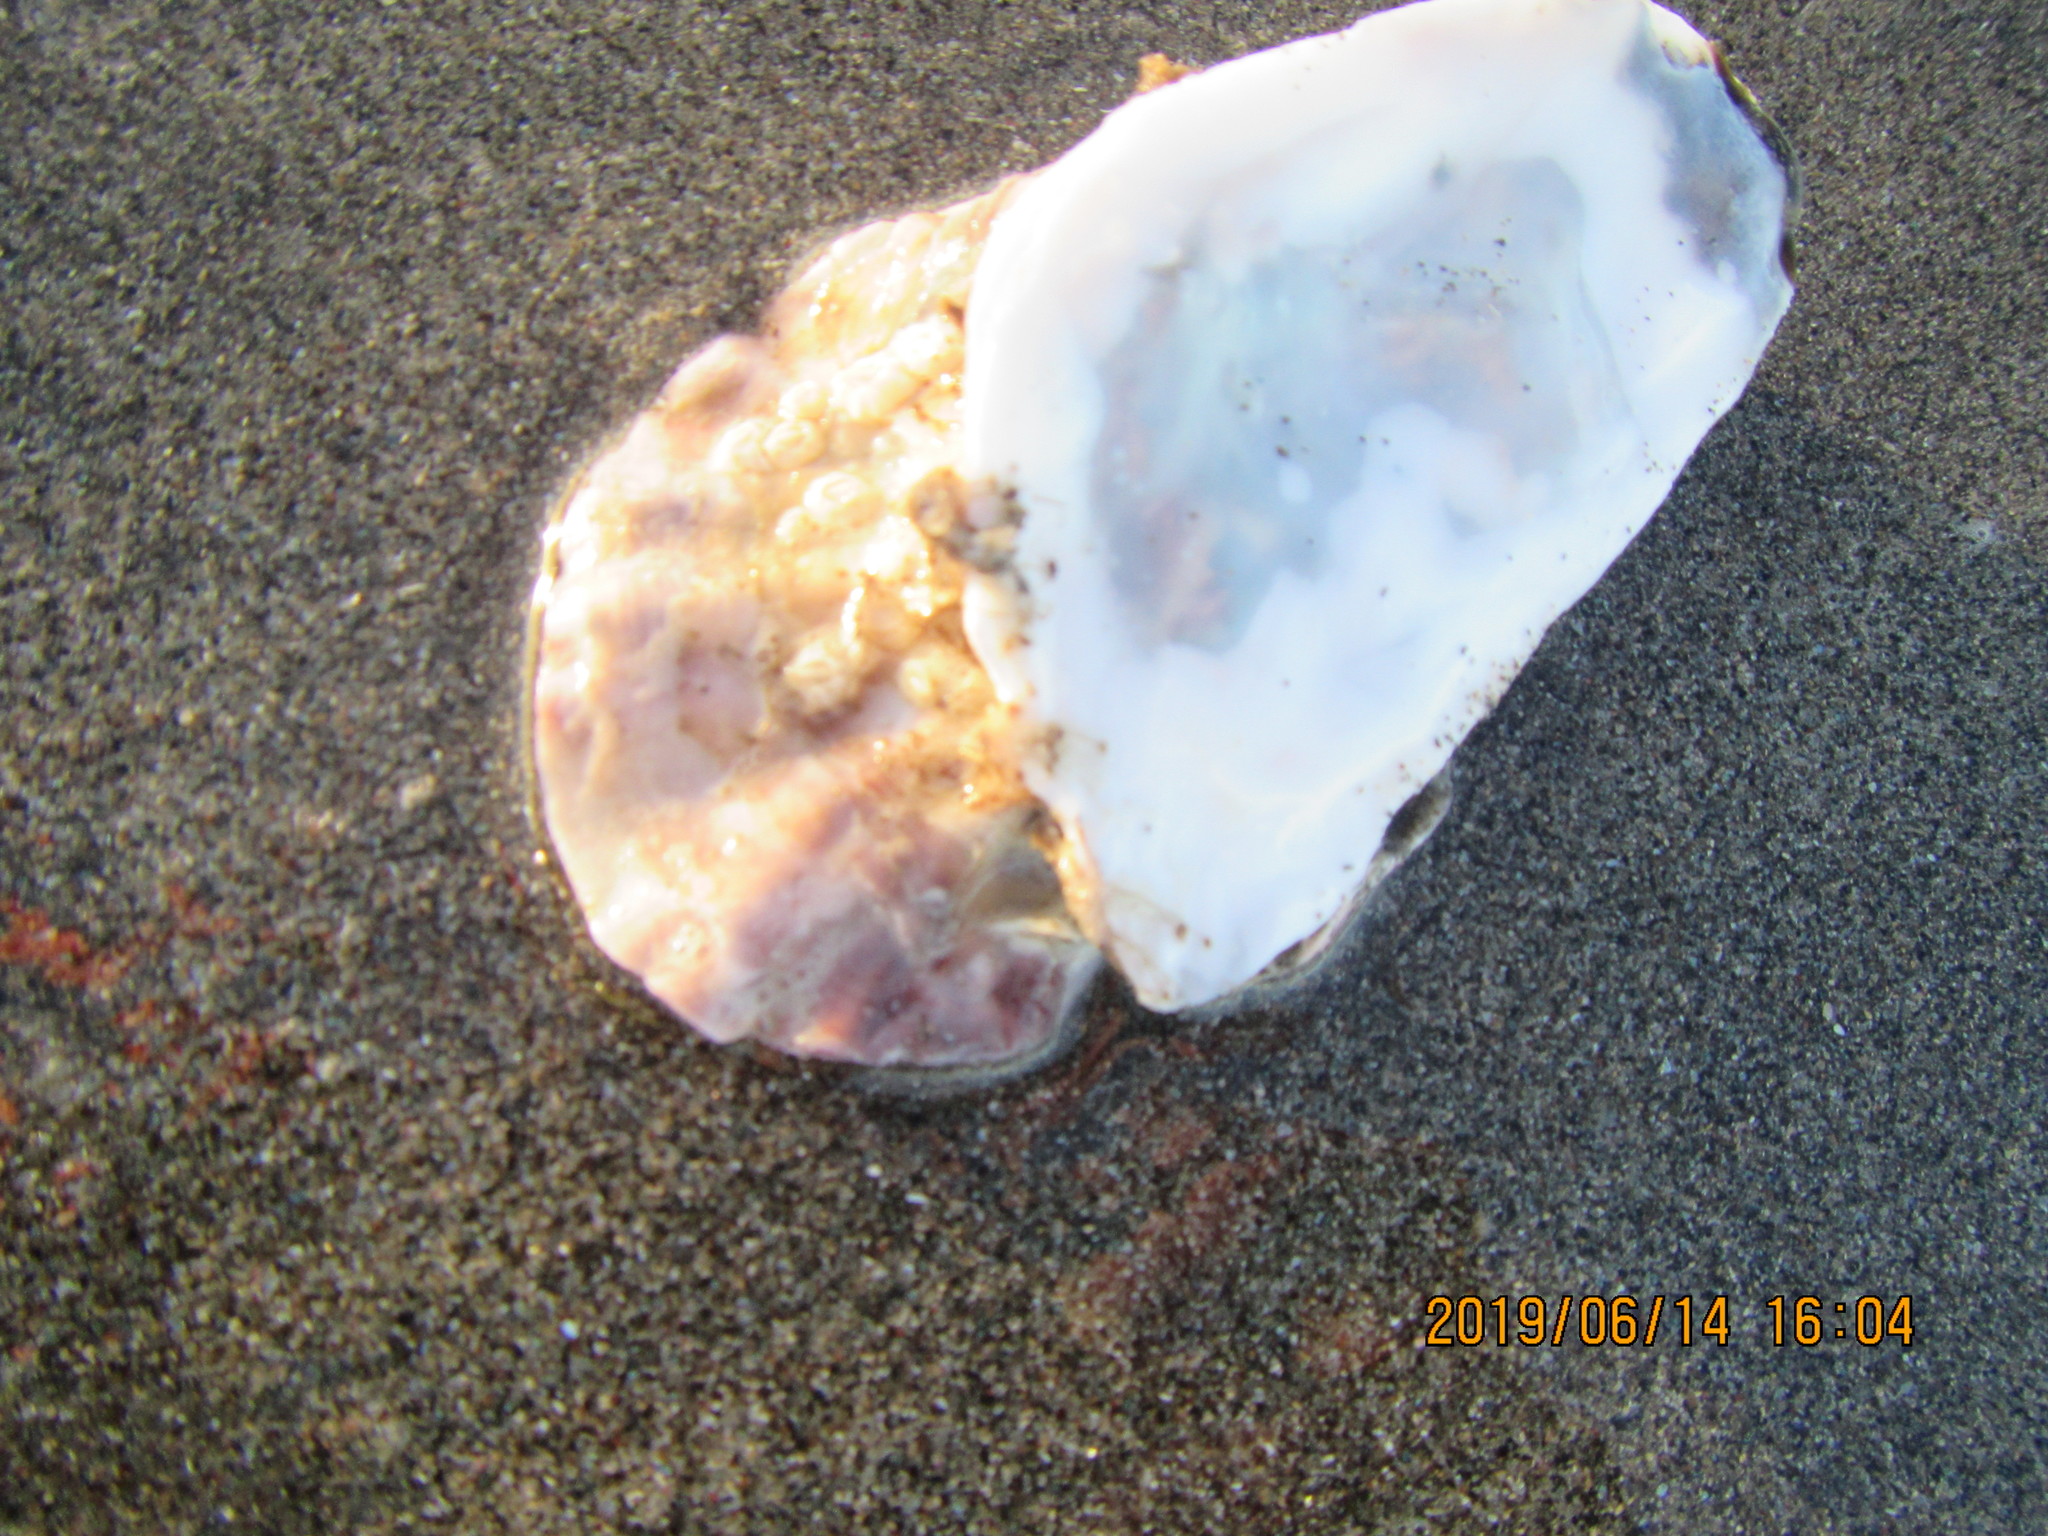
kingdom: Animalia
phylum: Mollusca
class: Bivalvia
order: Ostreida
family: Ostreidae
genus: Magallana
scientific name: Magallana gigas
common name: Pacific oyster
